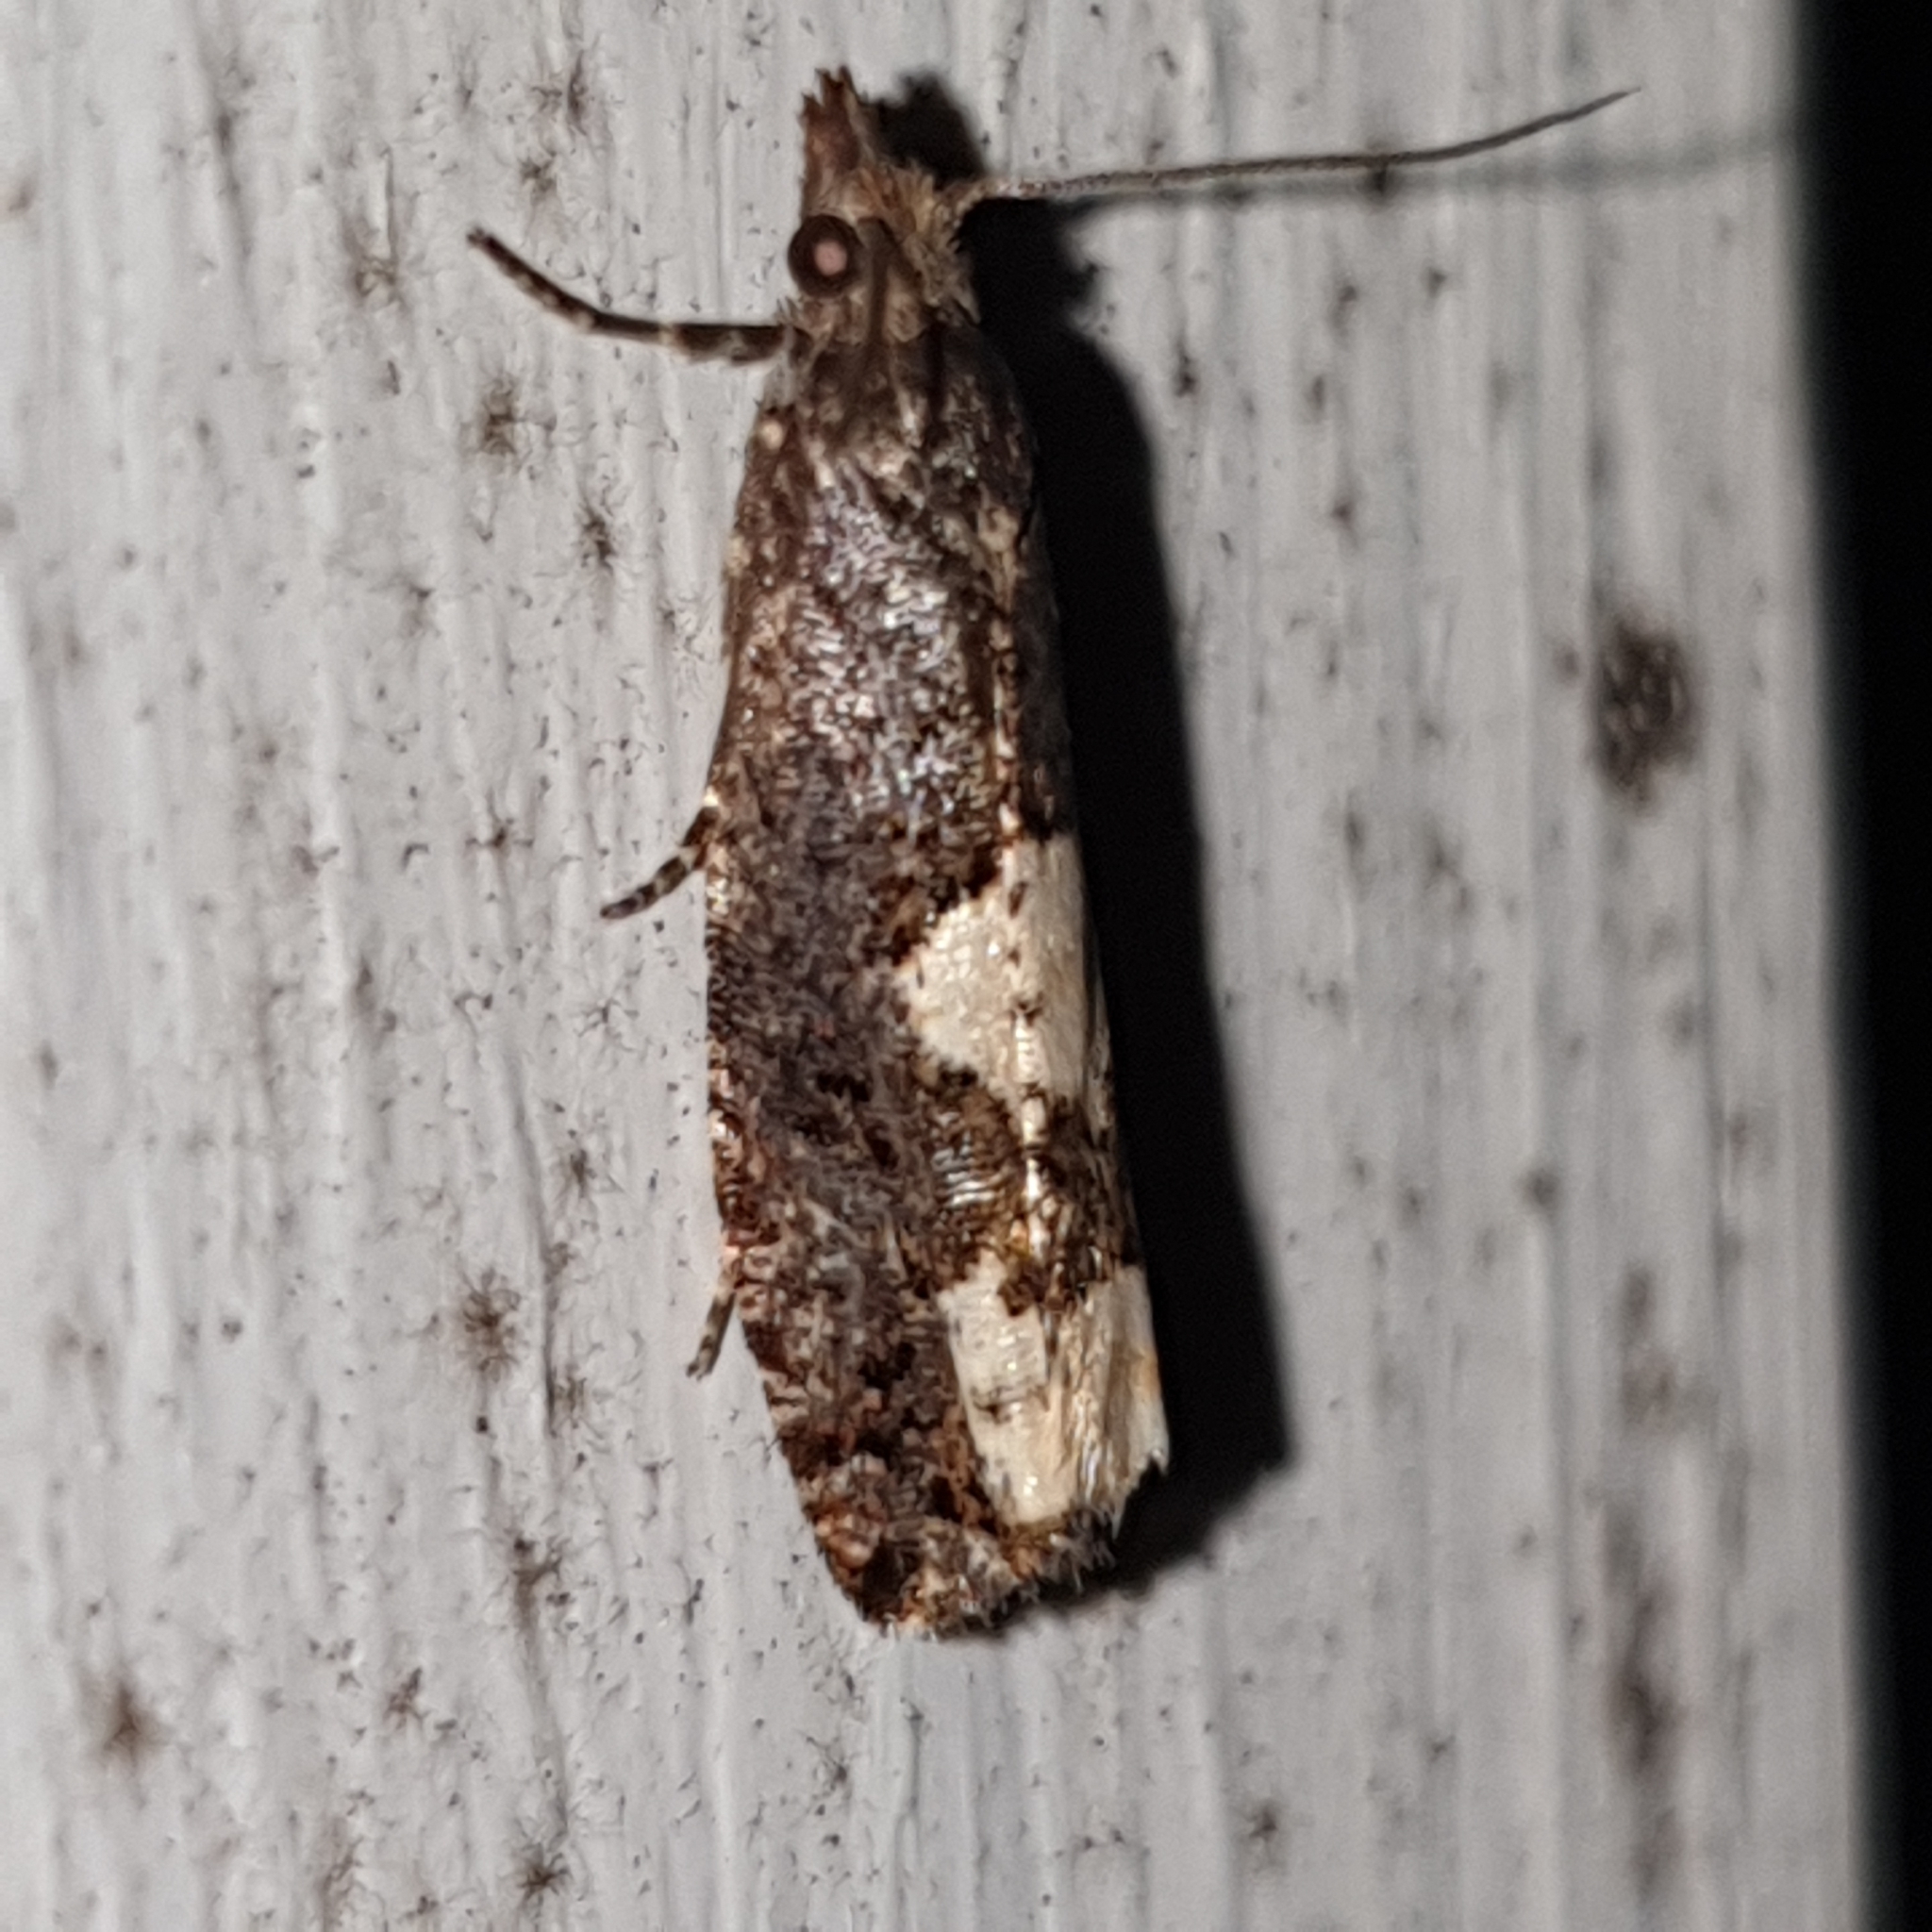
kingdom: Animalia
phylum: Arthropoda
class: Insecta
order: Lepidoptera
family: Tortricidae
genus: Epinotia
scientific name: Epinotia trigonella
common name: White-blotch bell
